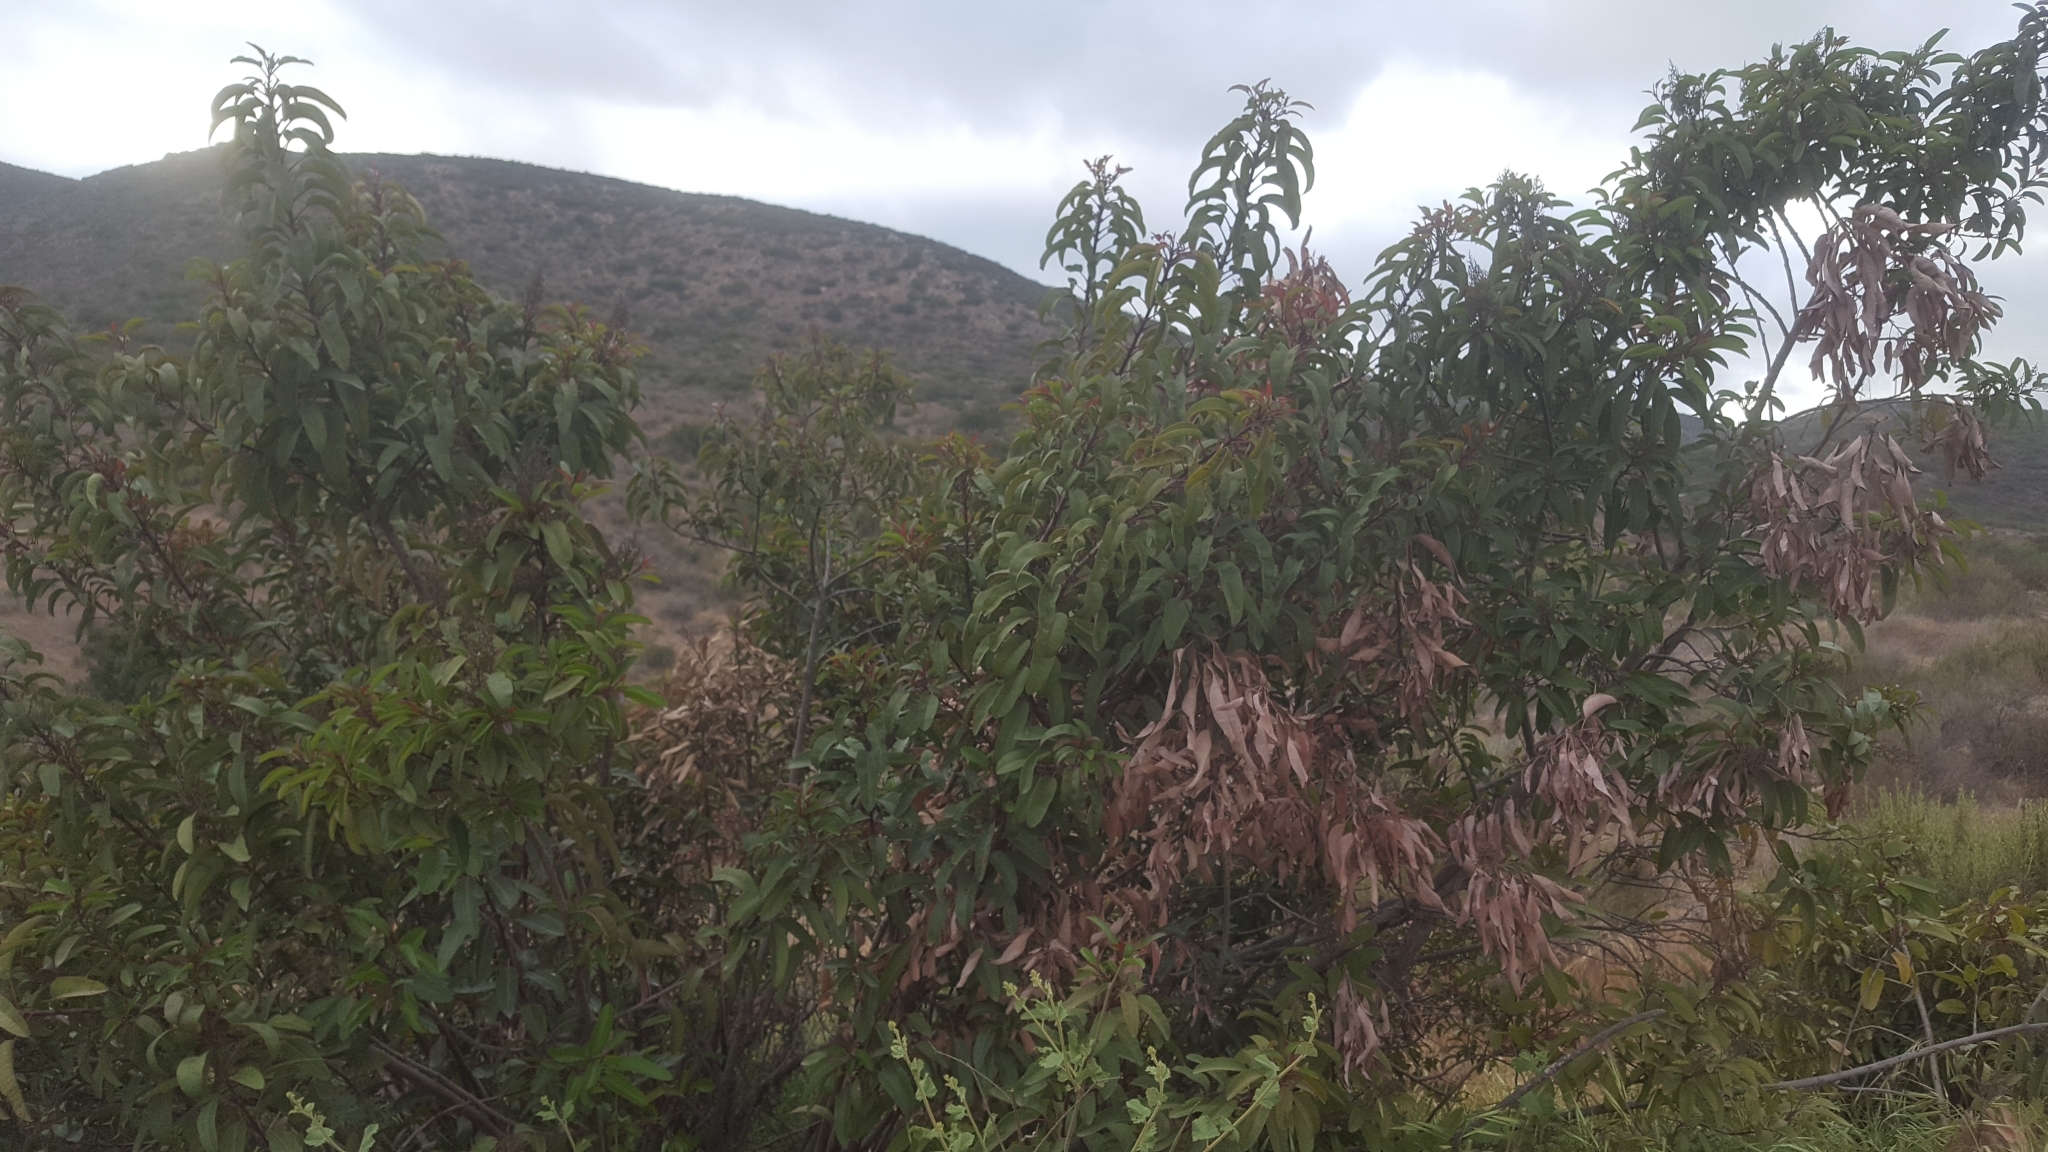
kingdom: Plantae
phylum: Tracheophyta
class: Magnoliopsida
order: Sapindales
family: Anacardiaceae
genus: Malosma
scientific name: Malosma laurina
